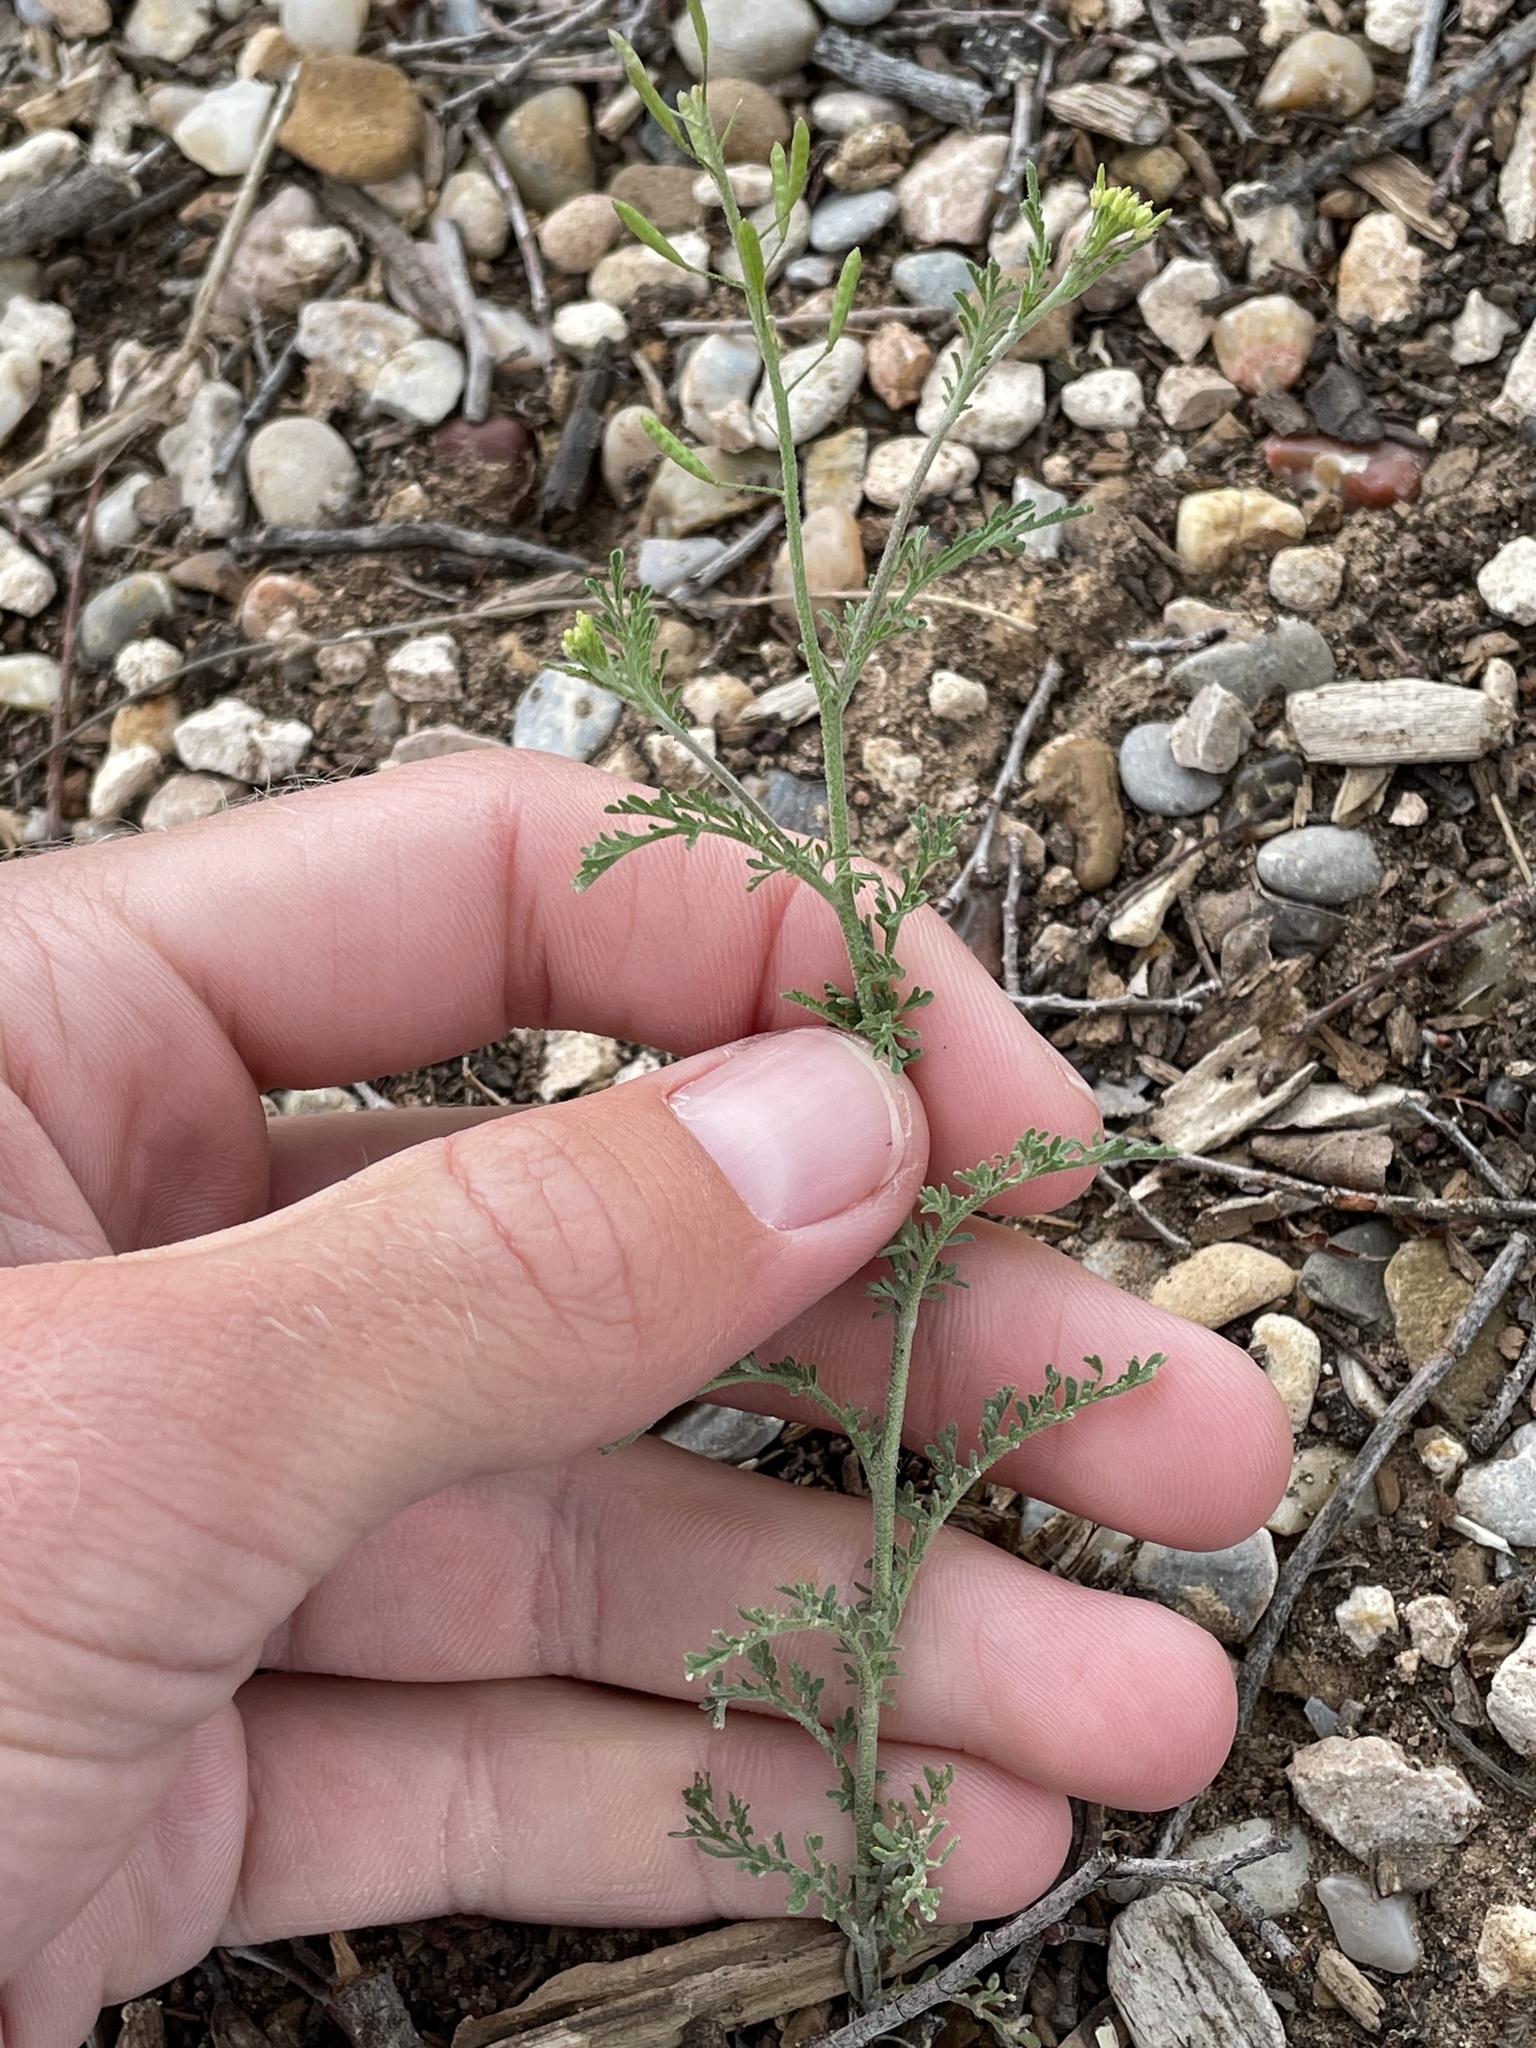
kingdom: Plantae
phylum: Tracheophyta
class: Magnoliopsida
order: Brassicales
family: Brassicaceae
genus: Descurainia
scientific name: Descurainia pinnata
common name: Western tansy mustard
